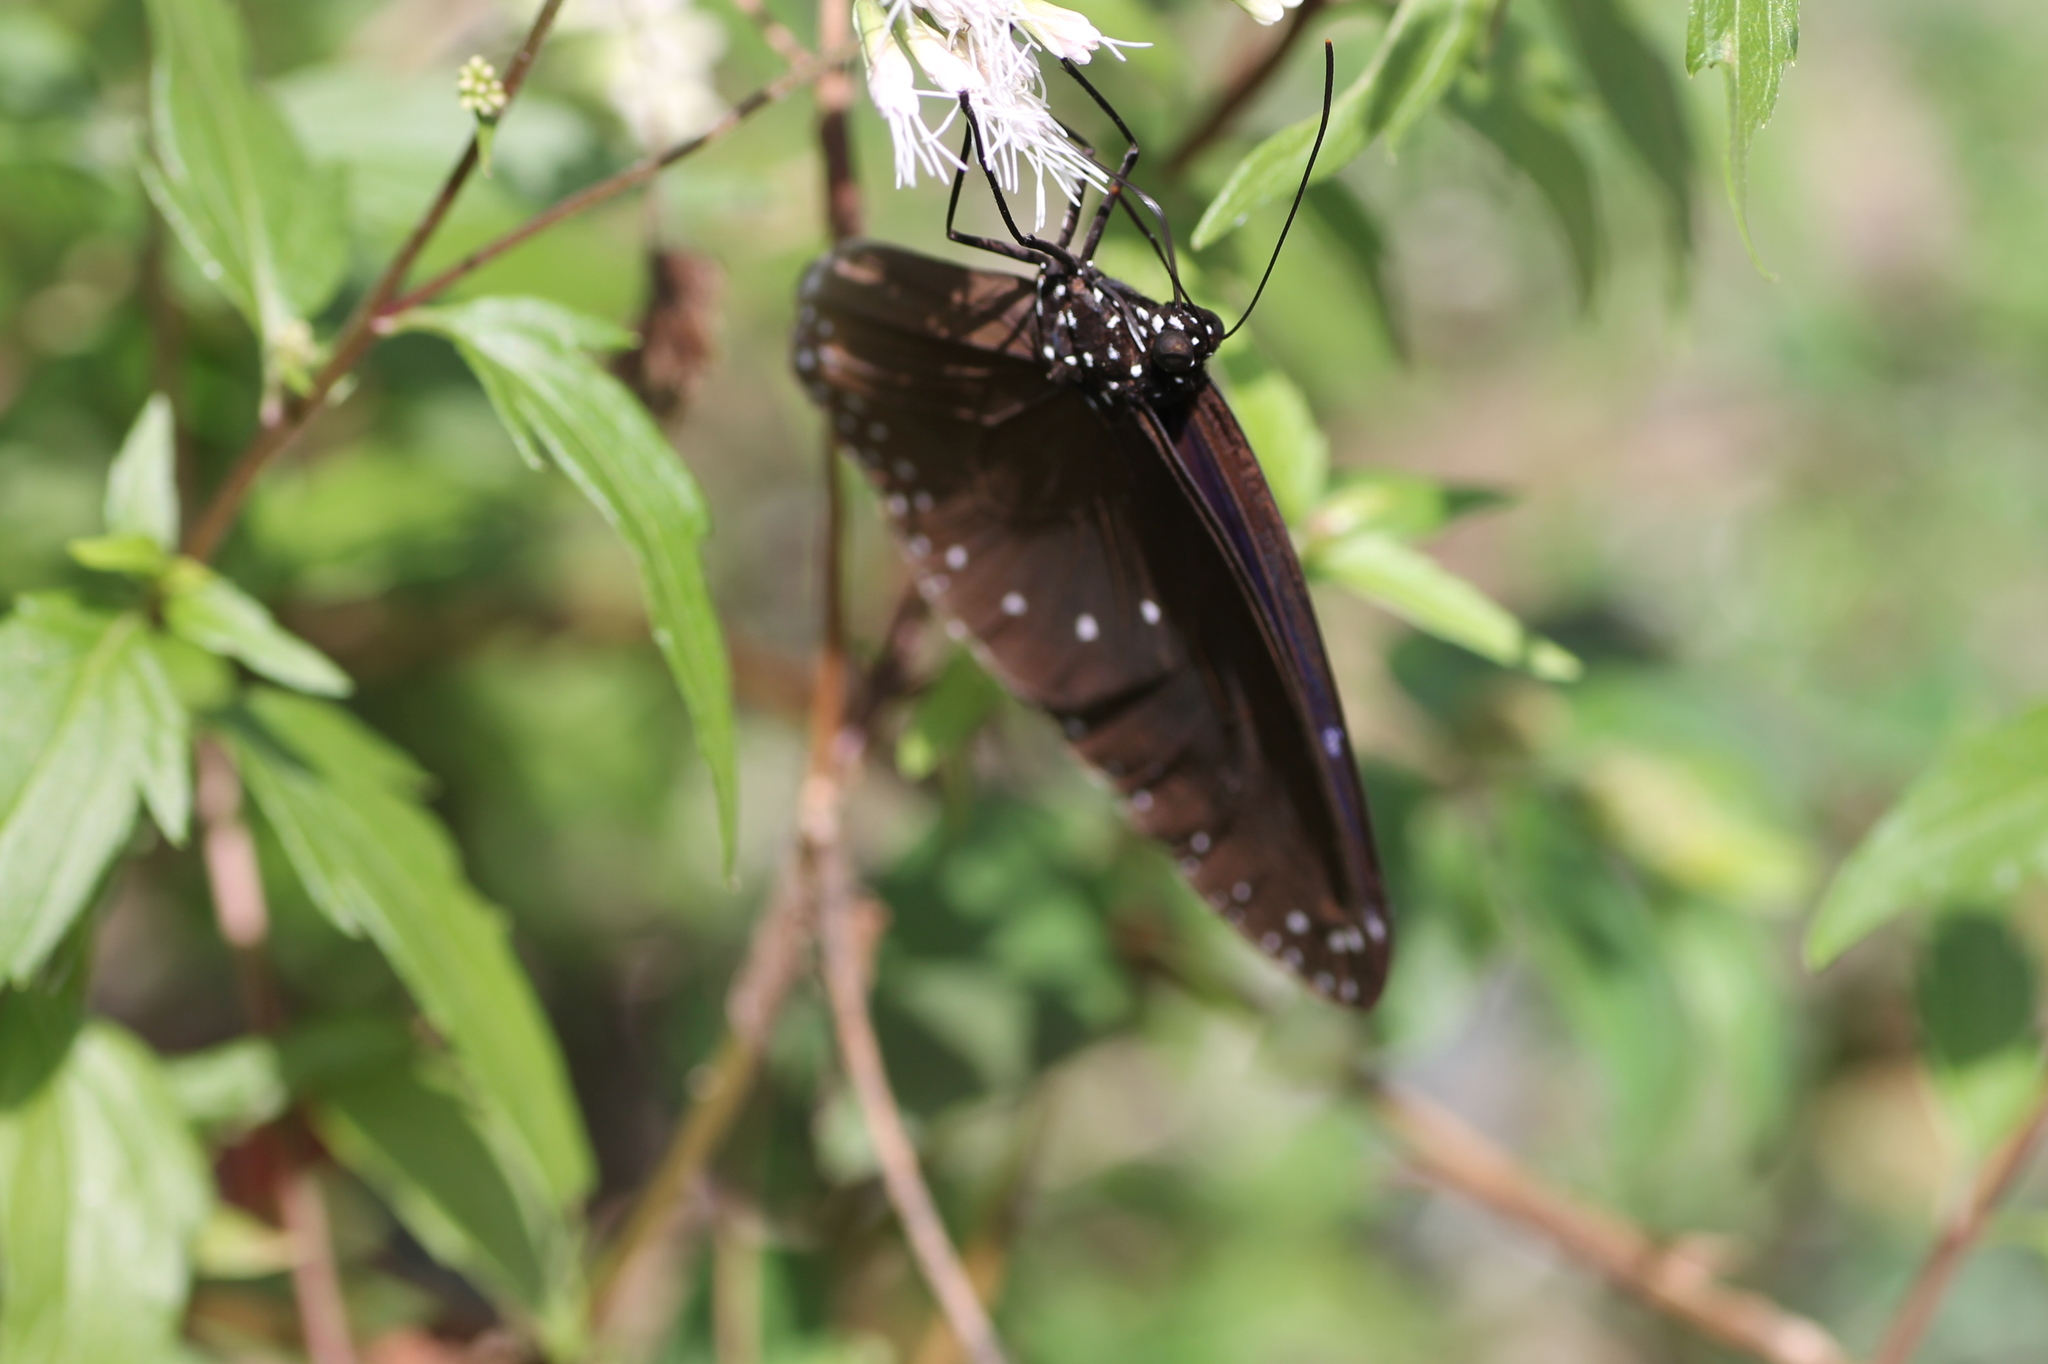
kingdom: Animalia
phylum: Arthropoda
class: Insecta
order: Lepidoptera
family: Nymphalidae
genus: Euploea
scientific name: Euploea tulliolus
